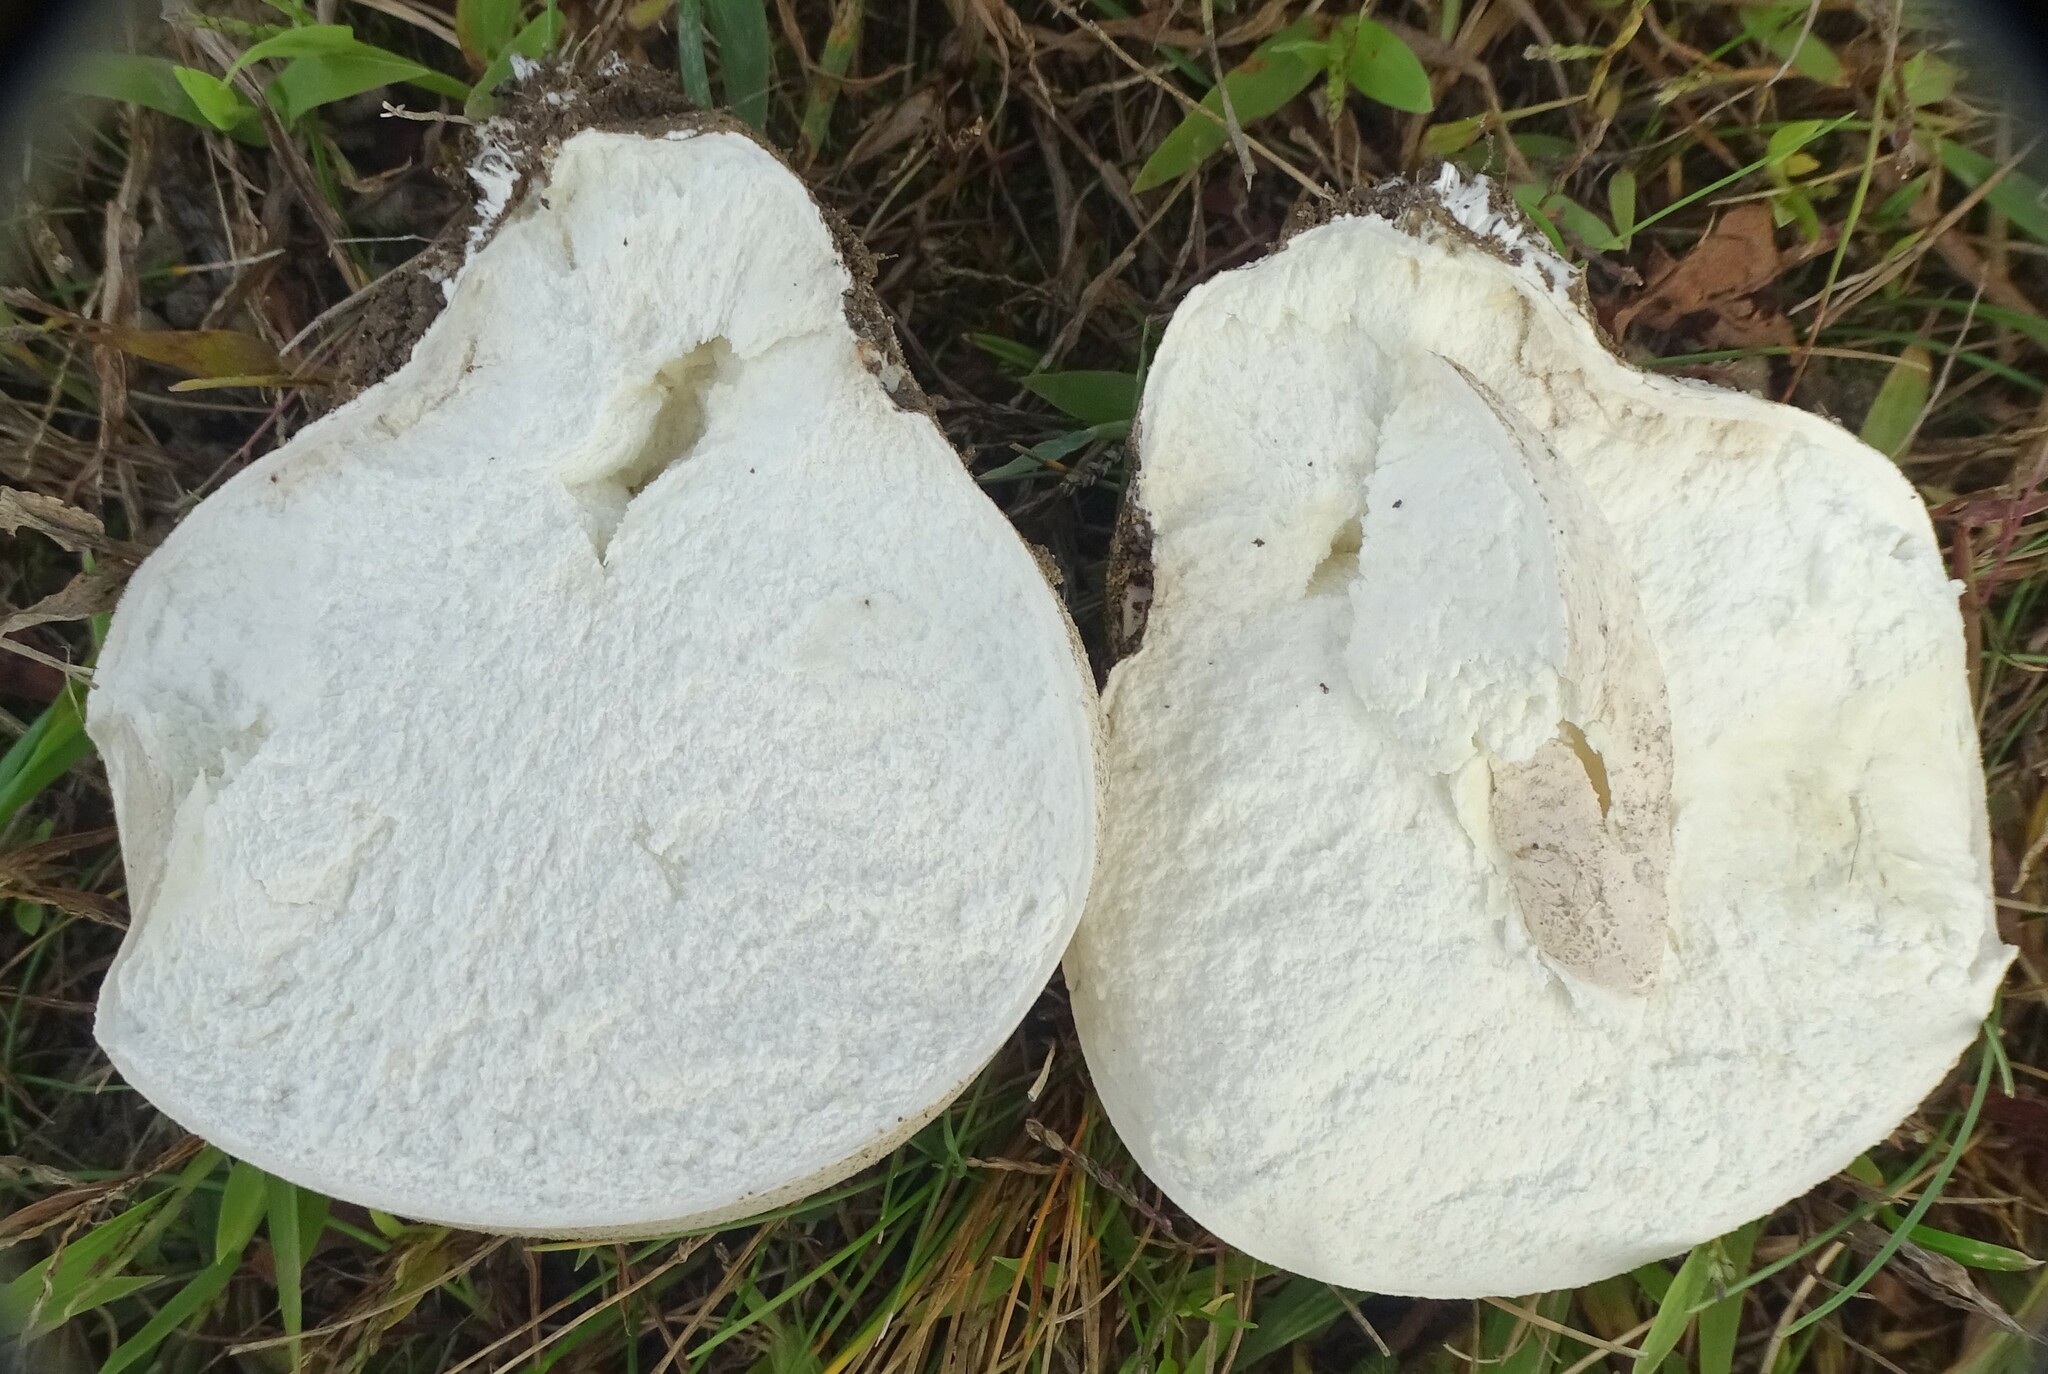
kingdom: Fungi
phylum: Basidiomycota
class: Agaricomycetes
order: Agaricales
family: Lycoperdaceae
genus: Calvatia
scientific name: Calvatia gigantea
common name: Giant puffball
